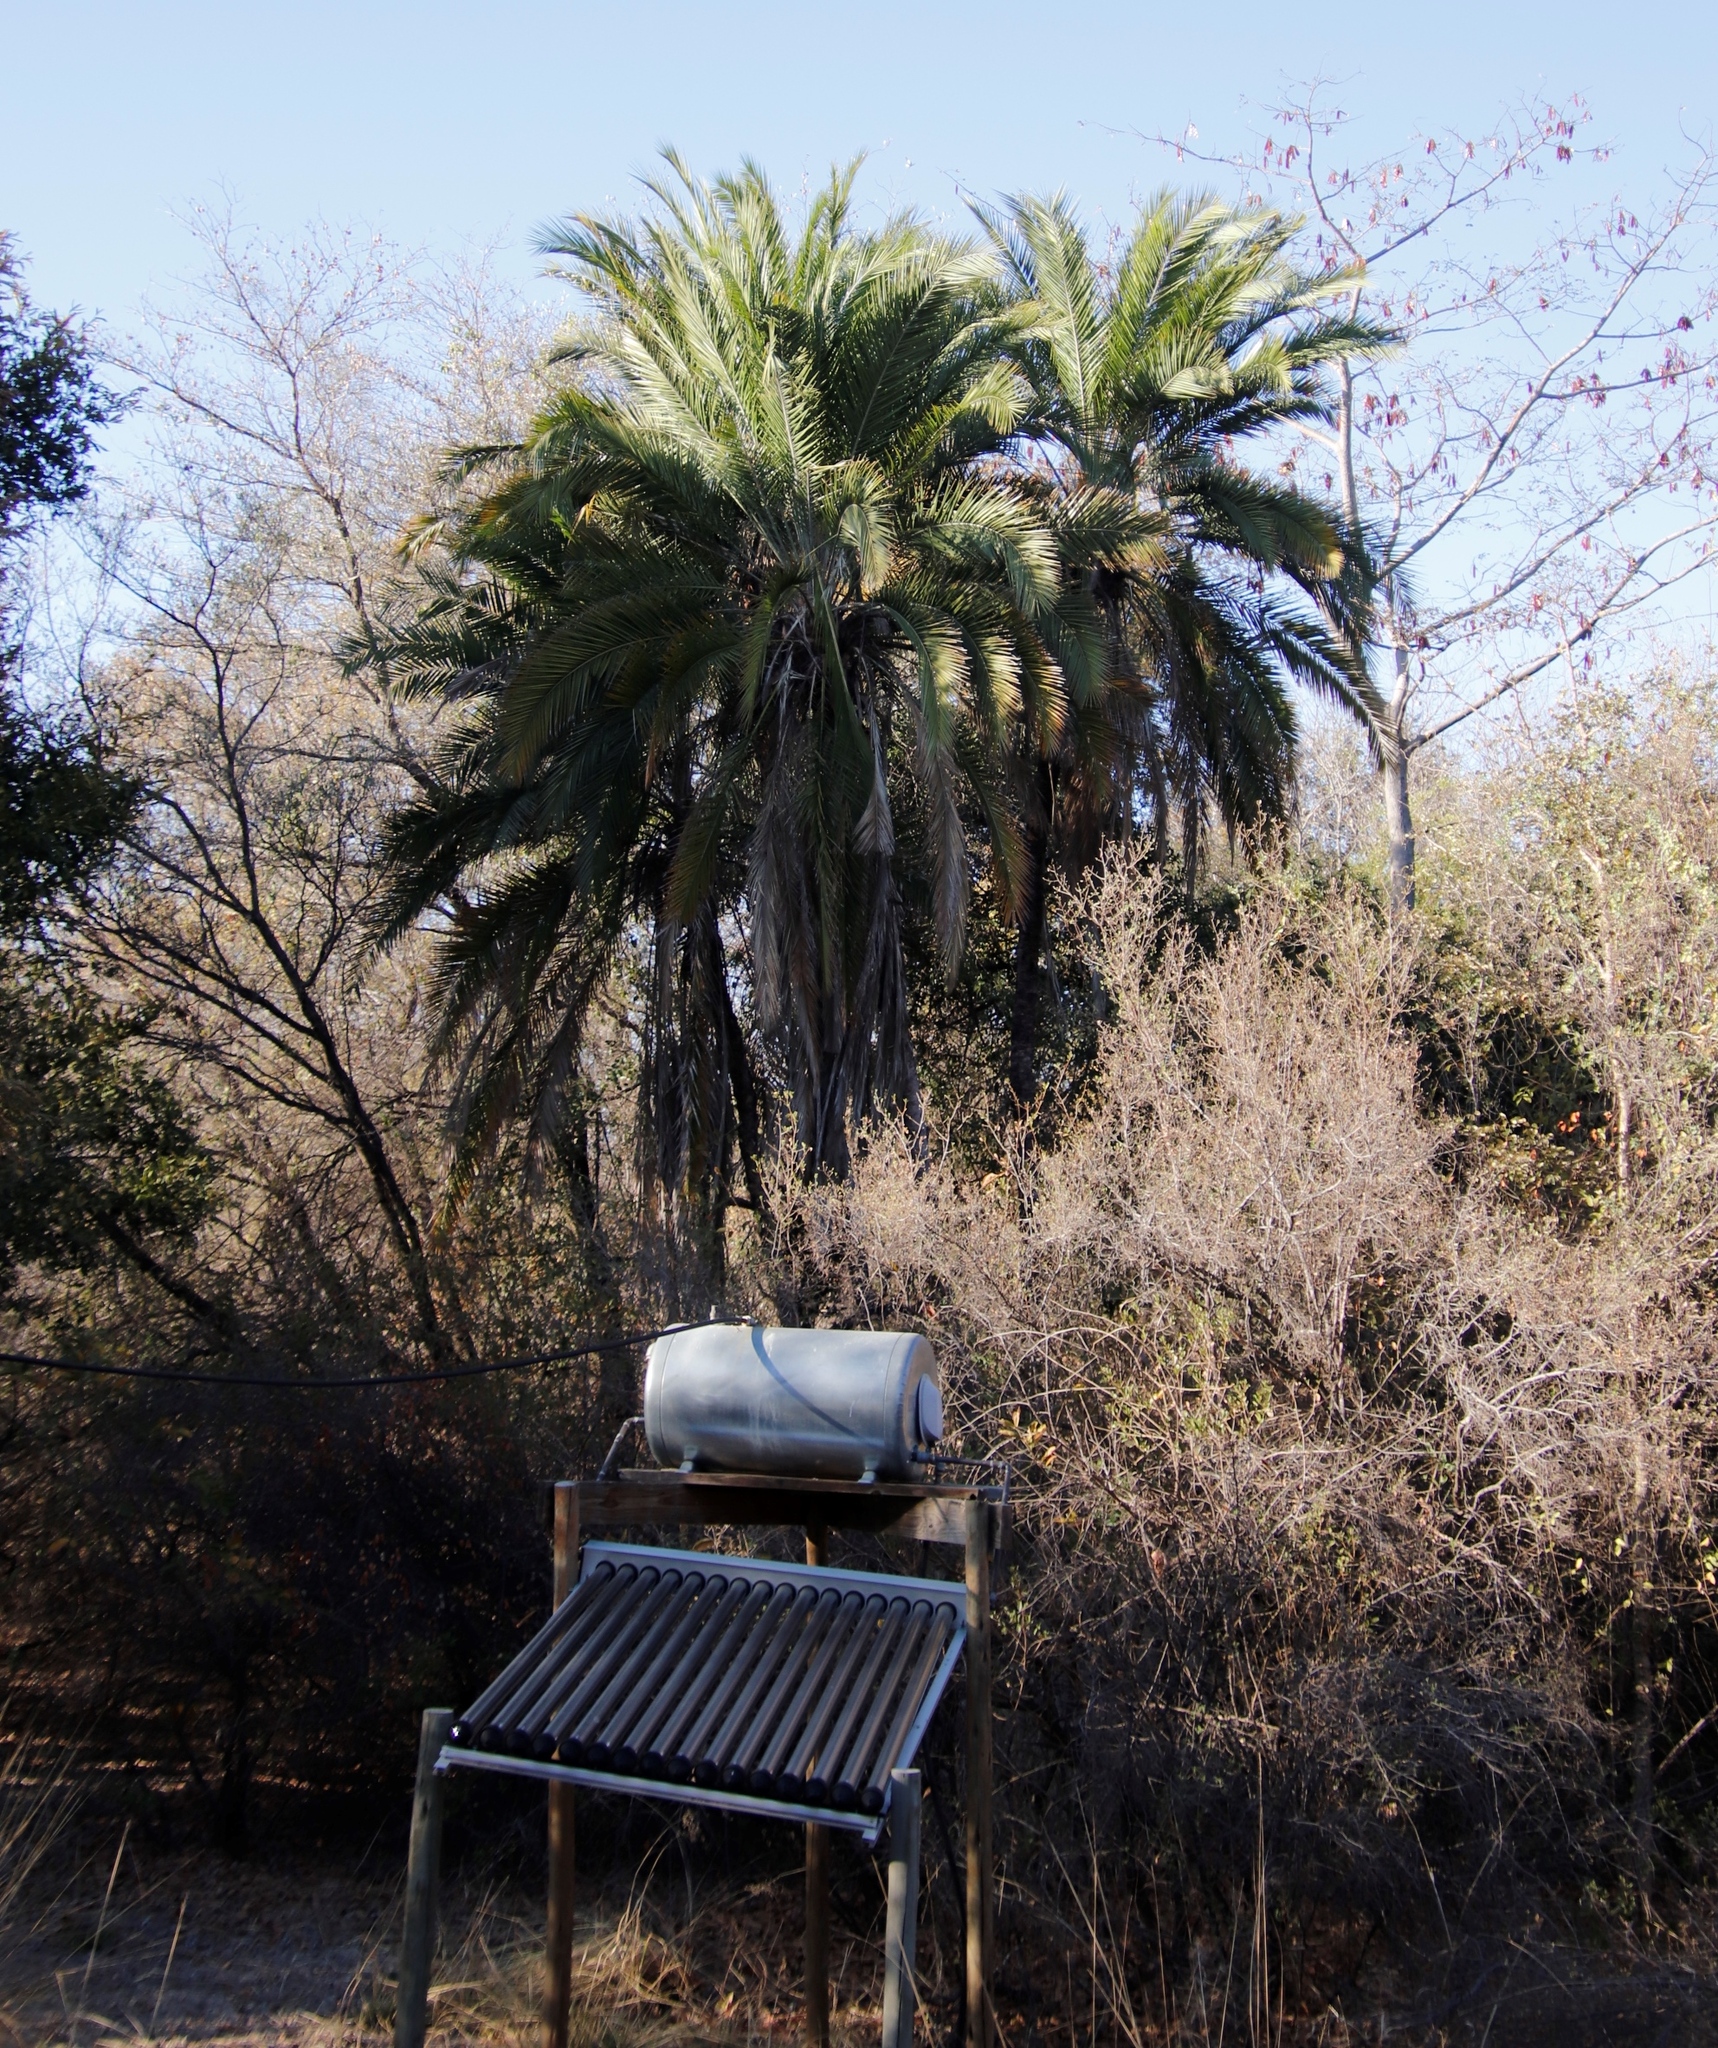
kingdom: Plantae
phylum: Tracheophyta
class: Liliopsida
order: Arecales
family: Arecaceae
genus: Phoenix
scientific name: Phoenix reclinata
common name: Senegal date palm
